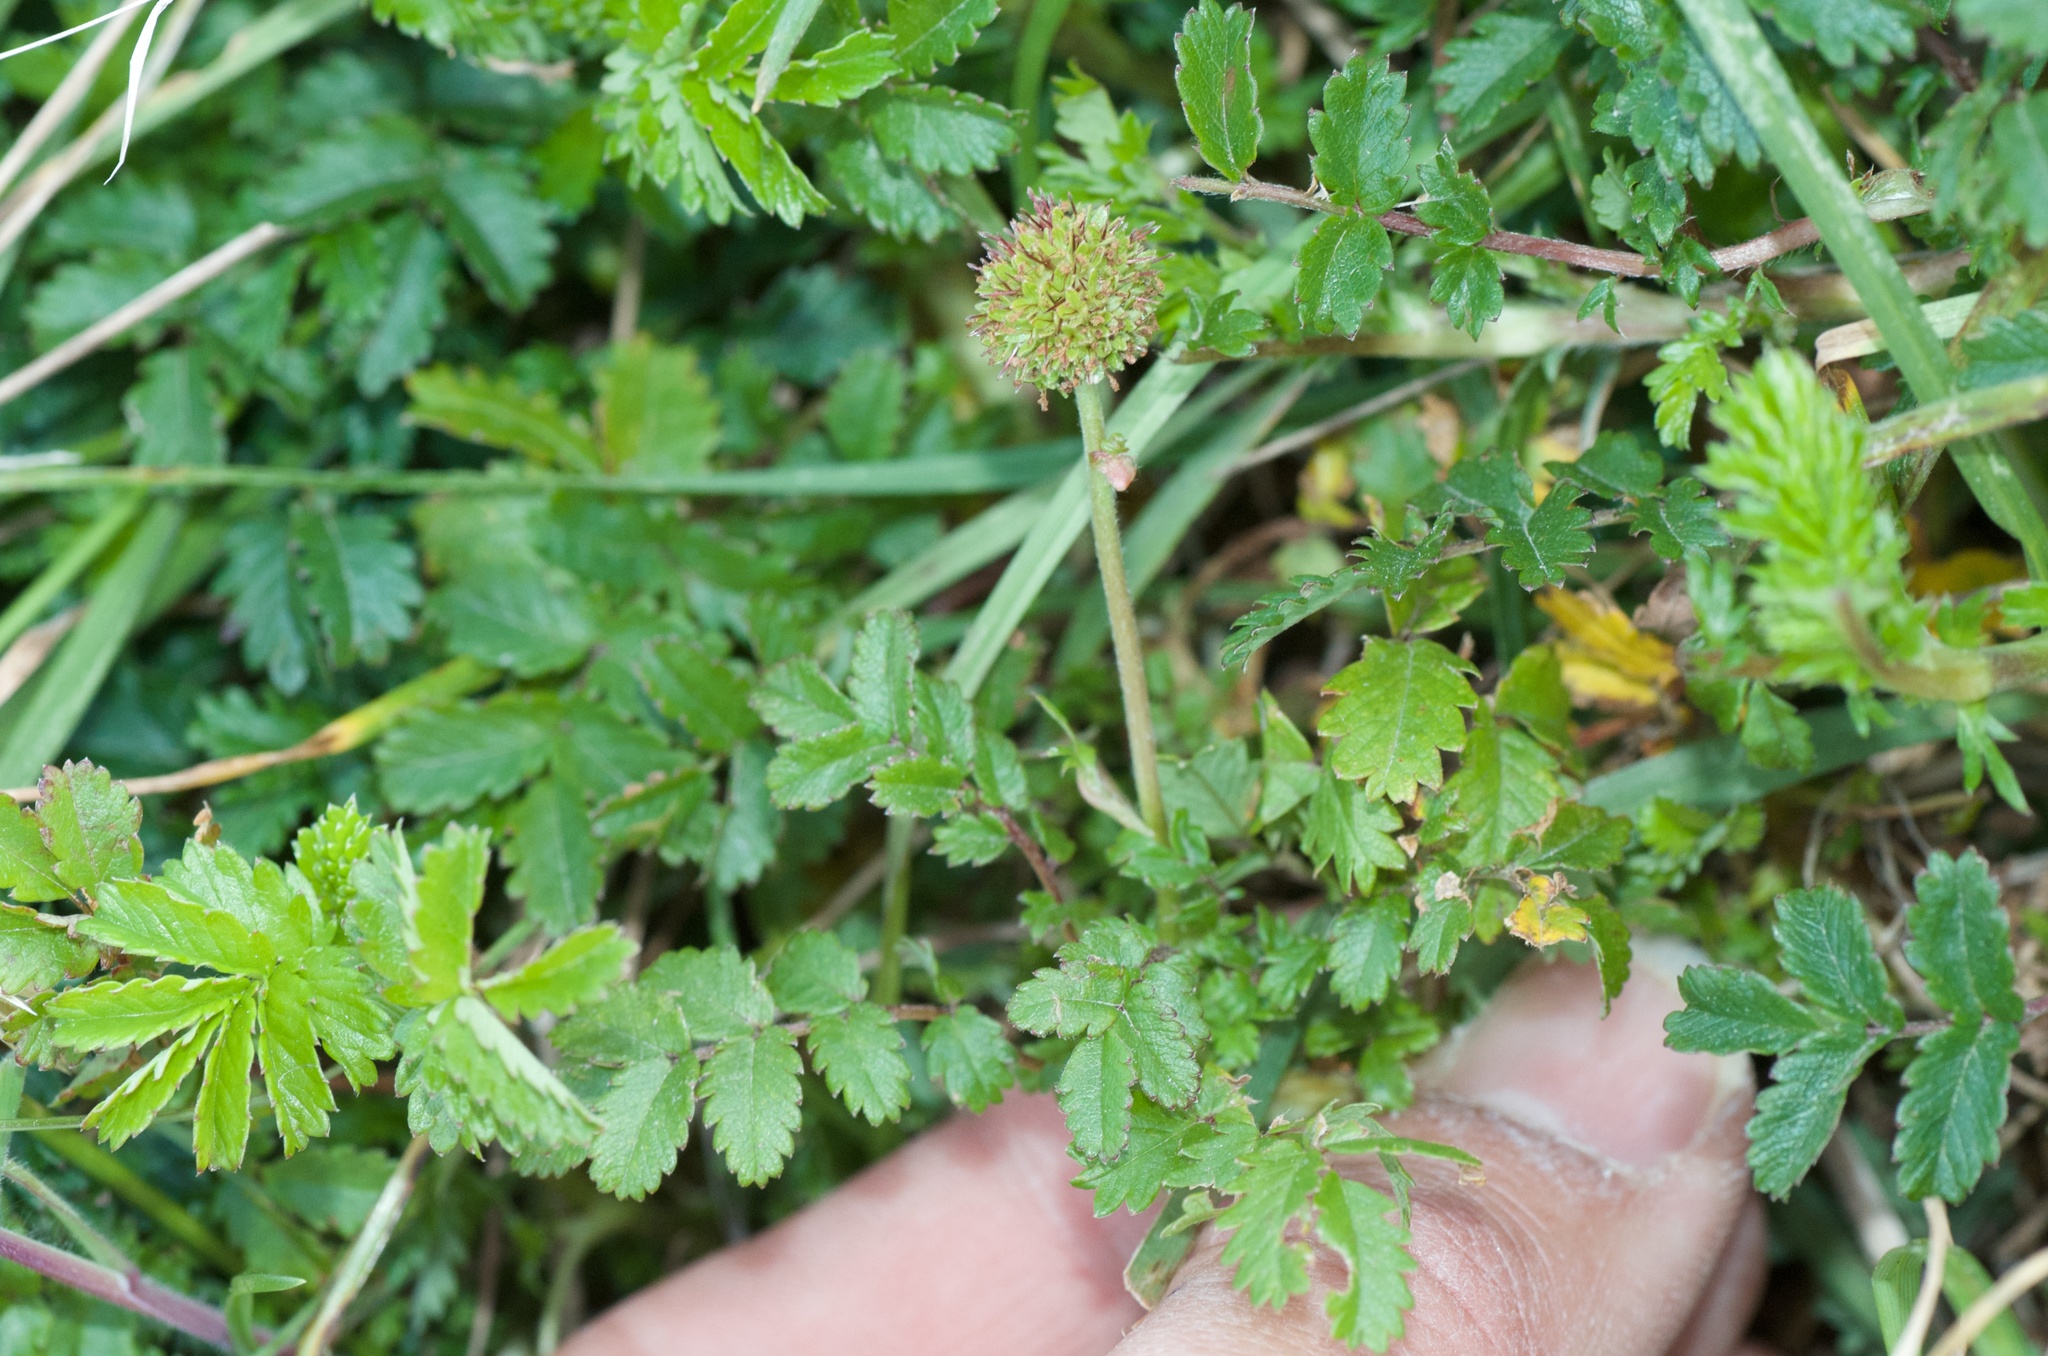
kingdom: Plantae
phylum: Tracheophyta
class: Magnoliopsida
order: Rosales
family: Rosaceae
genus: Acaena
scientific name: Acaena novae-zelandiae
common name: Pirri-pirri-bur
